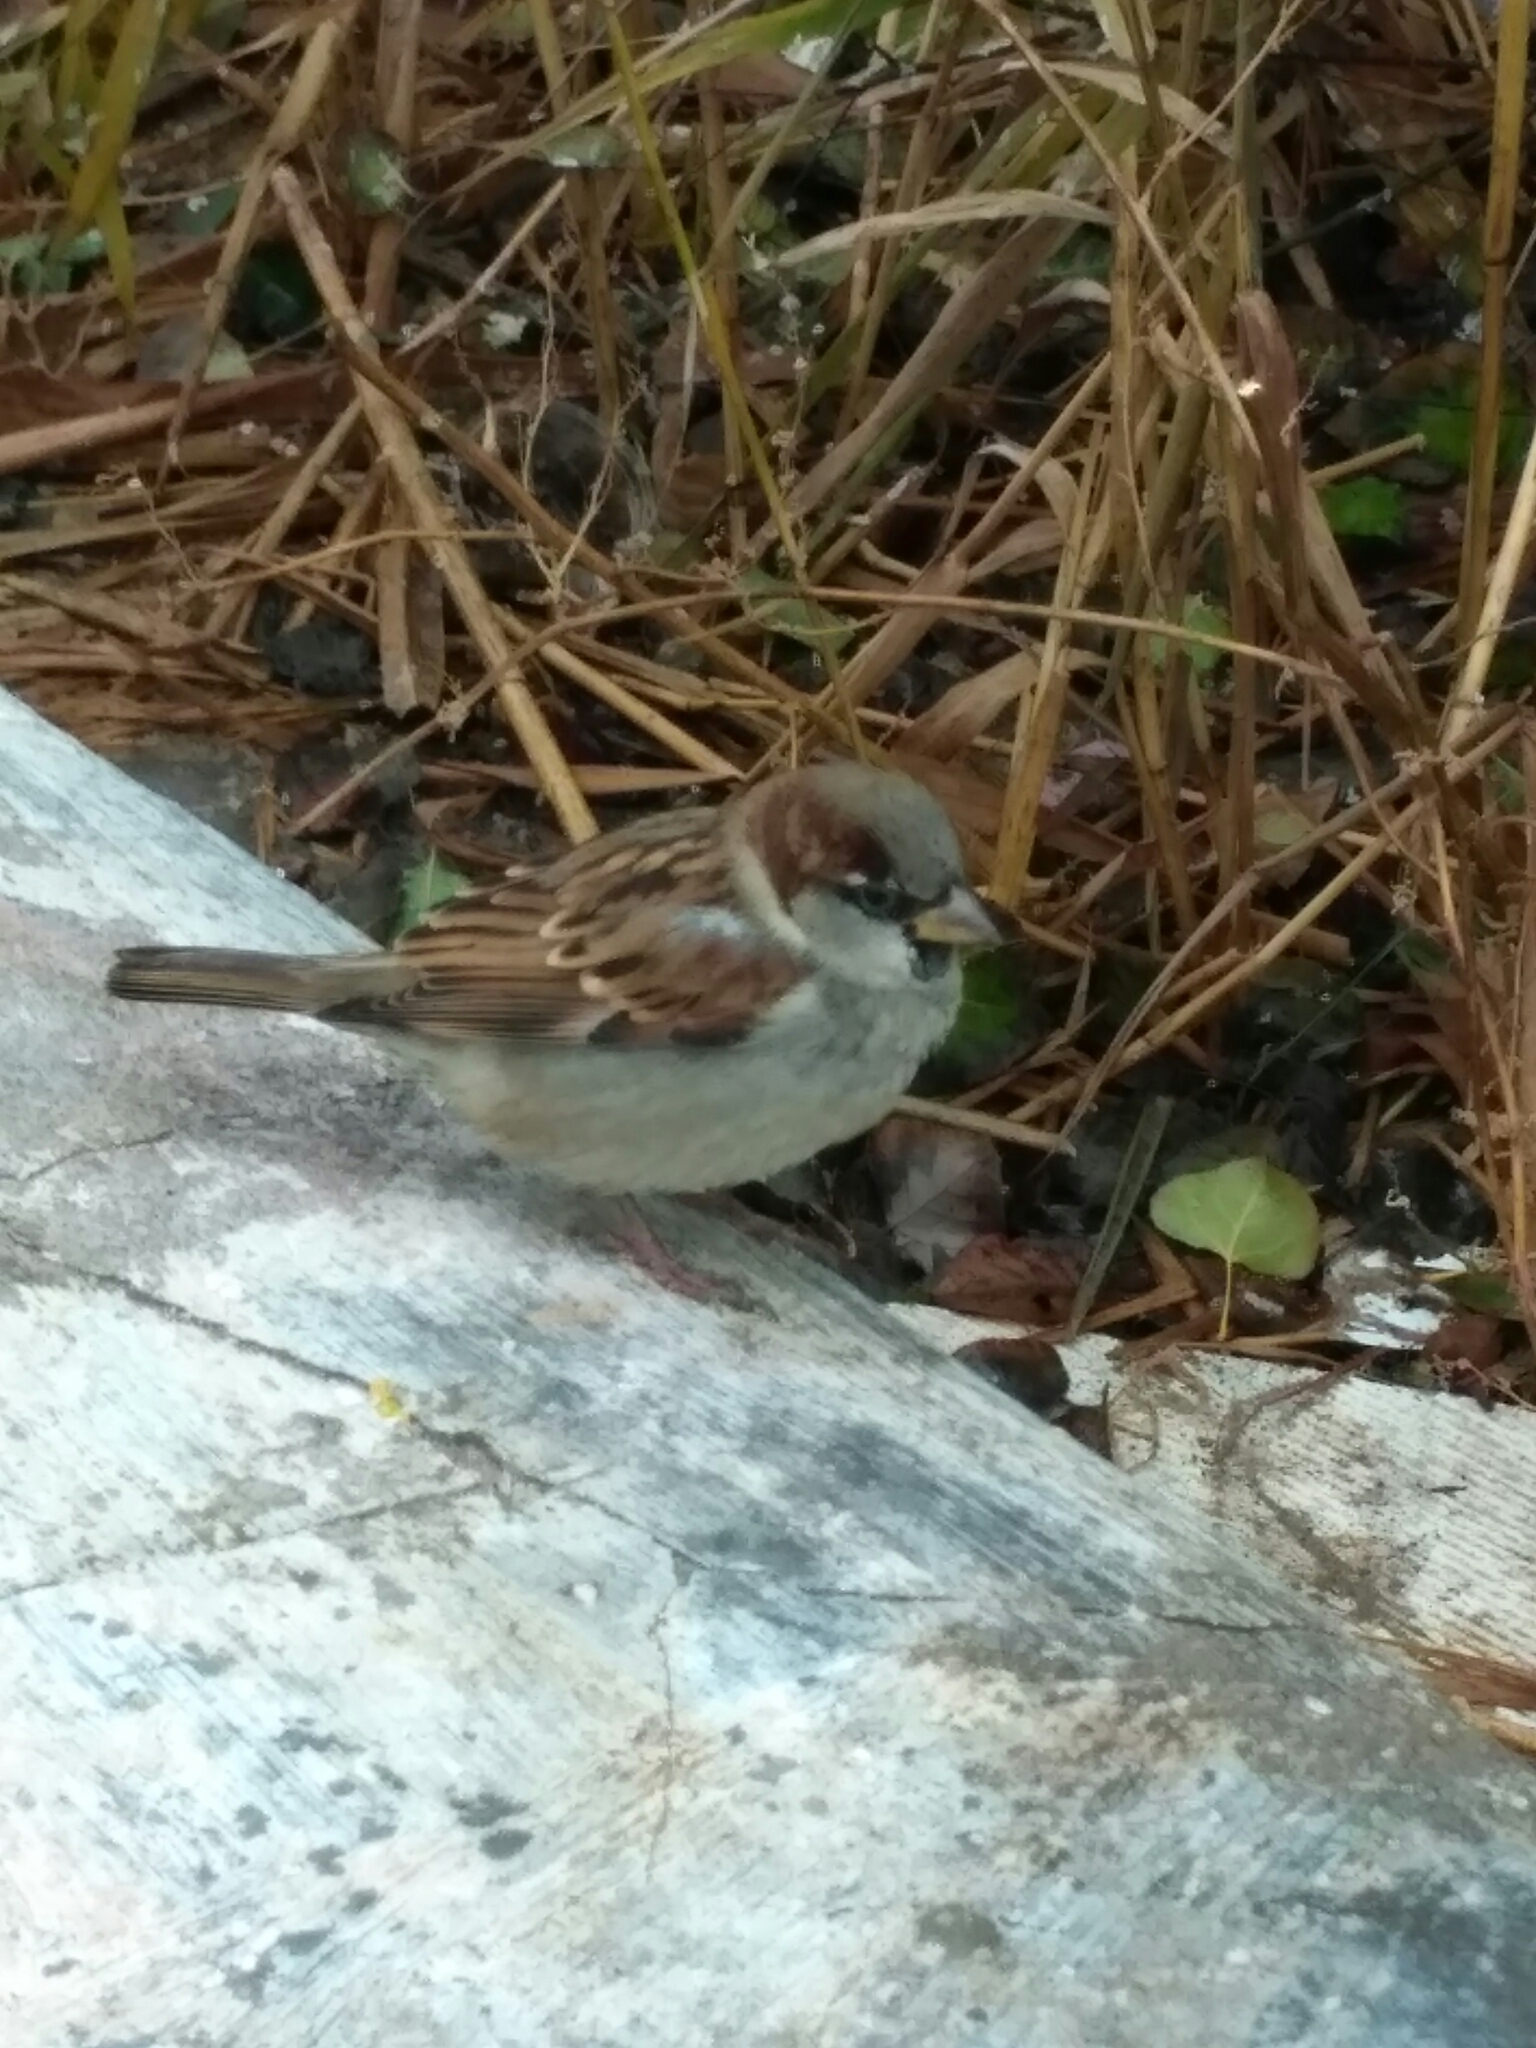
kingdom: Animalia
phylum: Chordata
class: Aves
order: Passeriformes
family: Passeridae
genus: Passer
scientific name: Passer domesticus
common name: House sparrow
